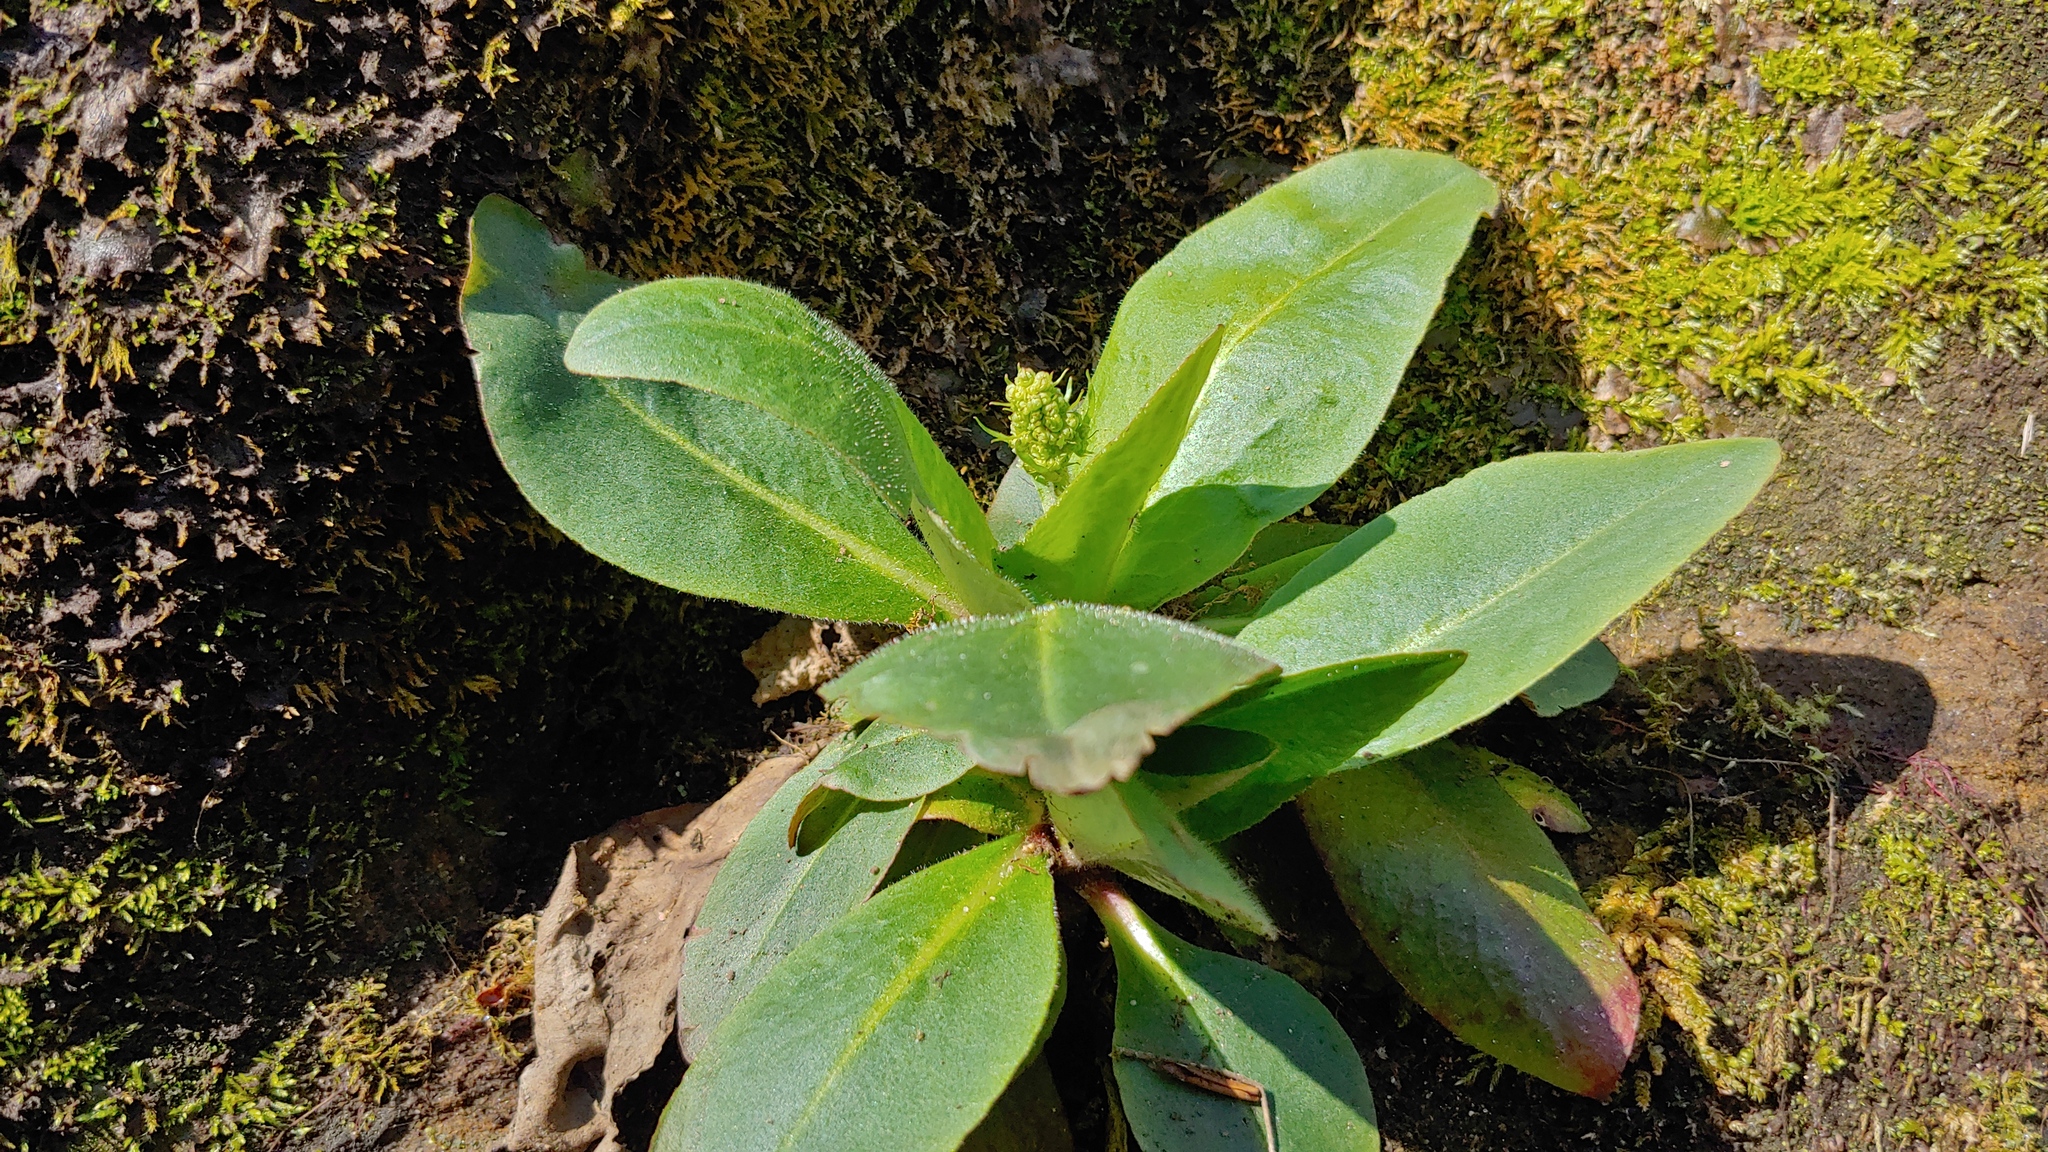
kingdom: Plantae
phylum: Tracheophyta
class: Magnoliopsida
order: Saxifragales
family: Saxifragaceae
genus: Micranthes
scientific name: Micranthes pensylvanica
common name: Marsh saxifrage
